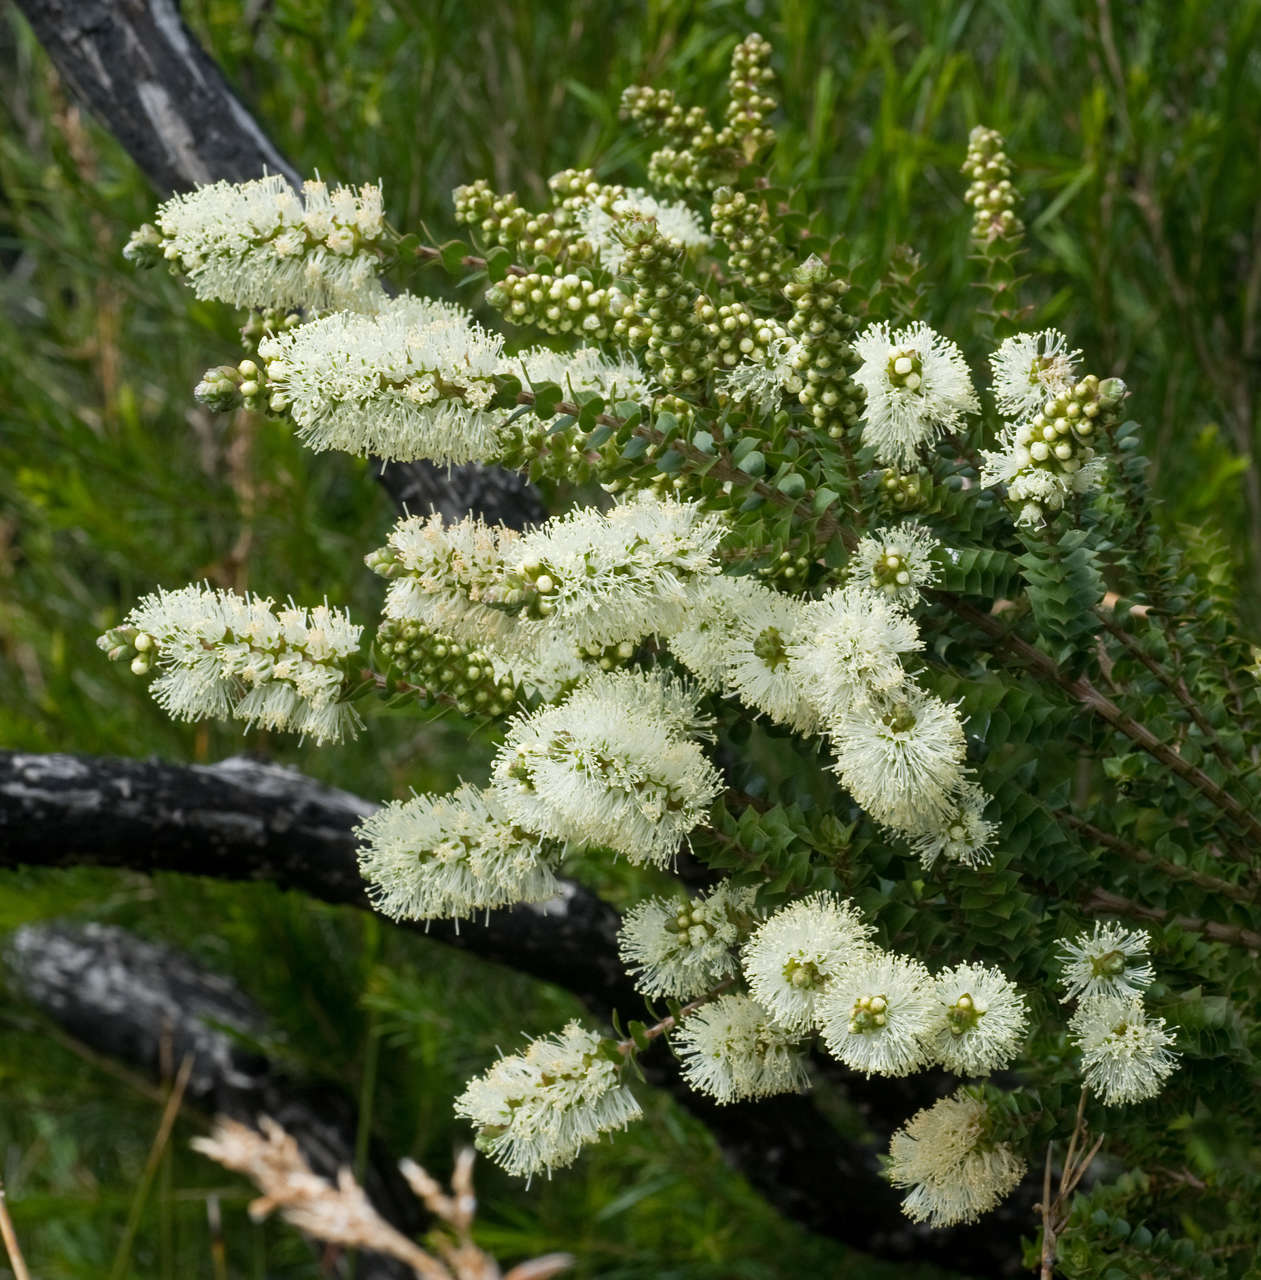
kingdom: Plantae
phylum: Tracheophyta
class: Magnoliopsida
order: Myrtales
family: Myrtaceae
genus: Melaleuca
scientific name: Melaleuca squarrosa
